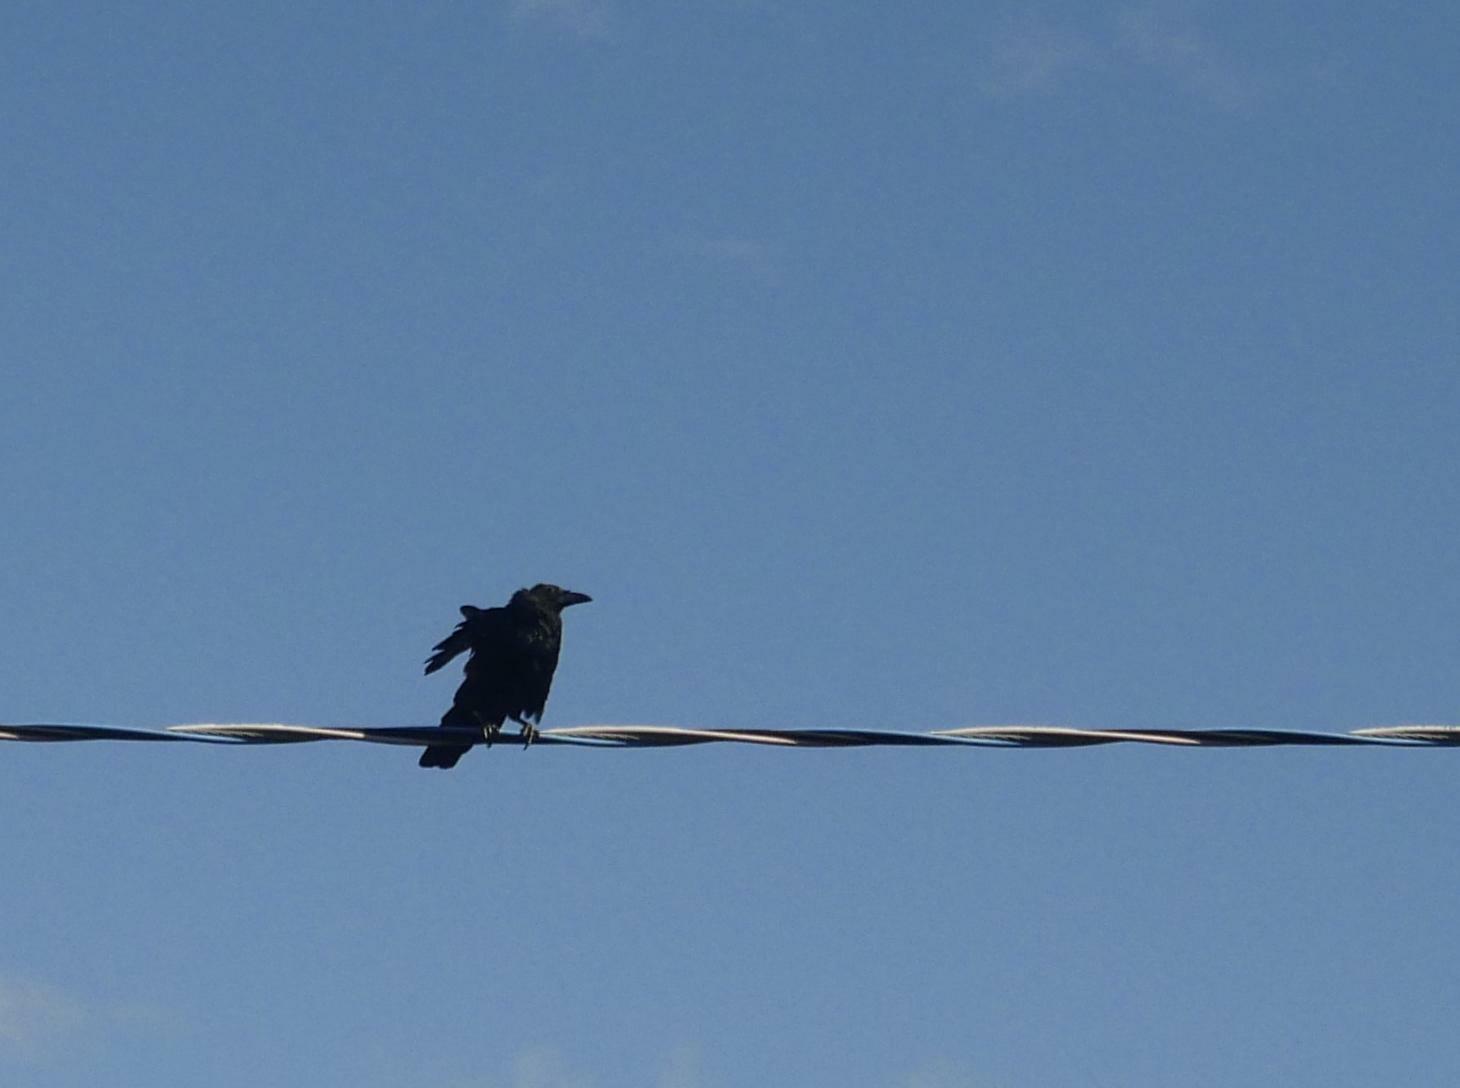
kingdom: Animalia
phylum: Chordata
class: Aves
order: Passeriformes
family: Corvidae
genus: Corvus
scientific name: Corvus brachyrhynchos
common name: American crow
